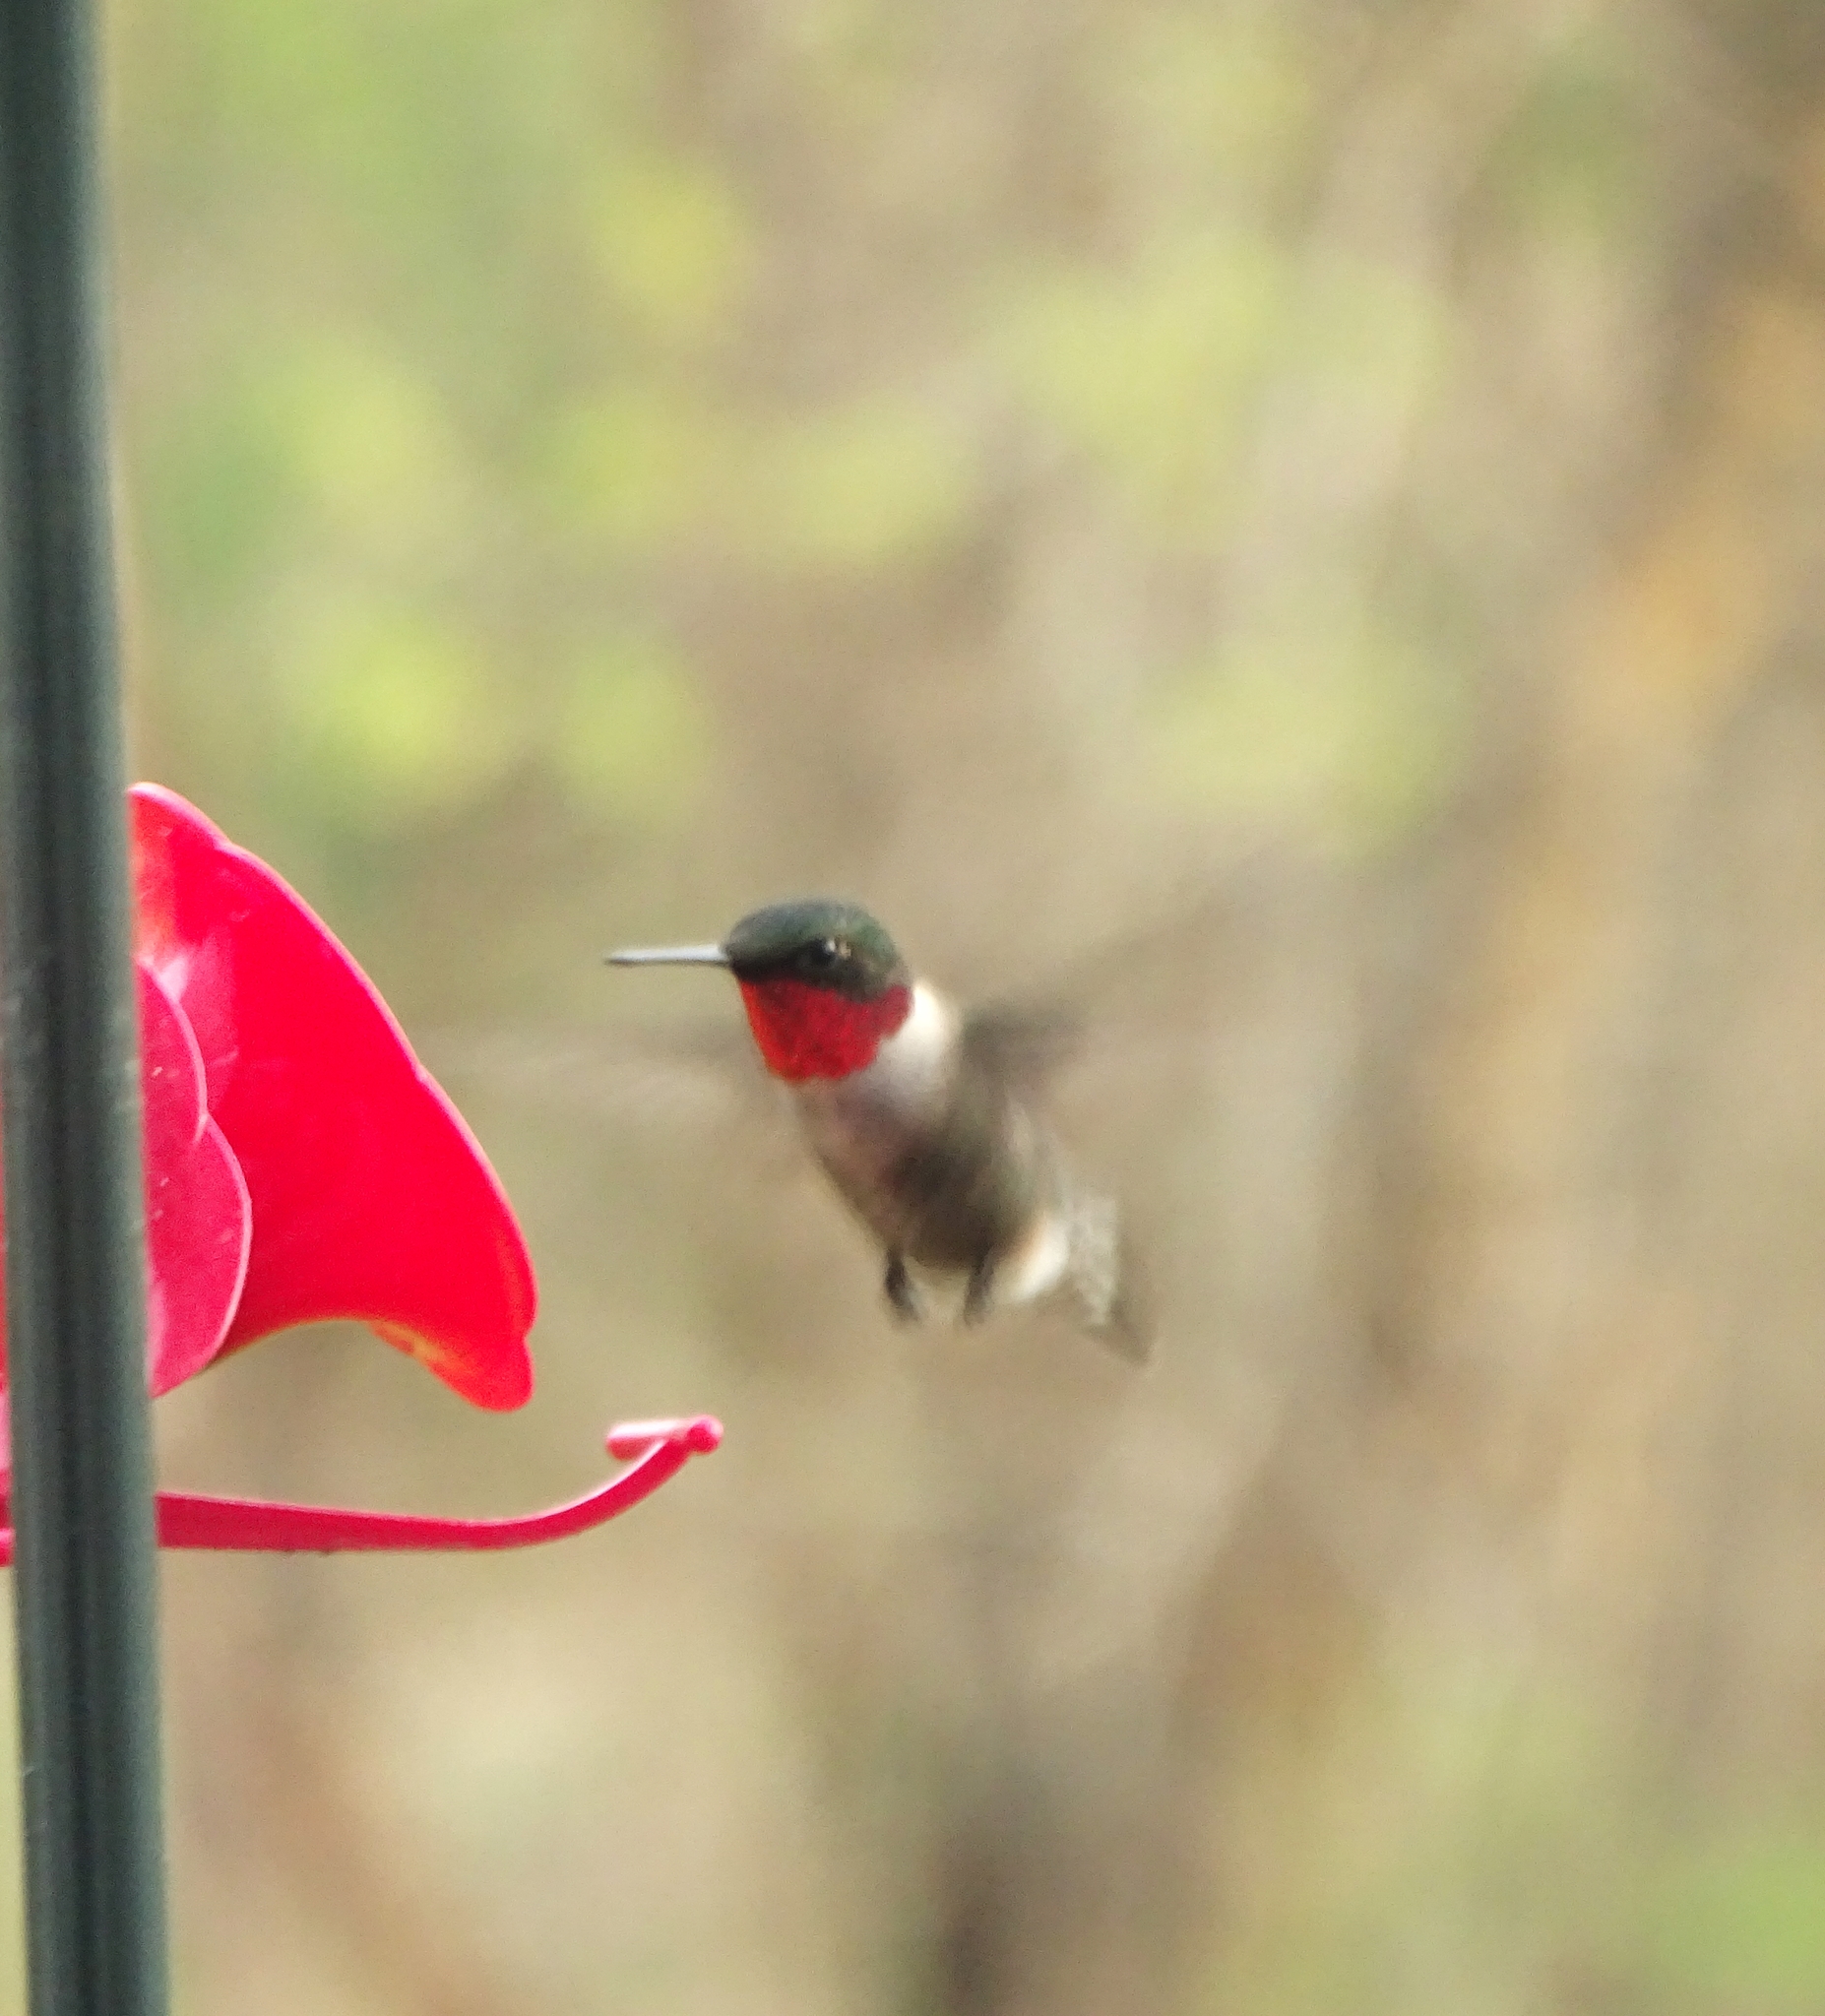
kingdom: Animalia
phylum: Chordata
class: Aves
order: Apodiformes
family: Trochilidae
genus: Archilochus
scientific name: Archilochus colubris
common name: Ruby-throated hummingbird
